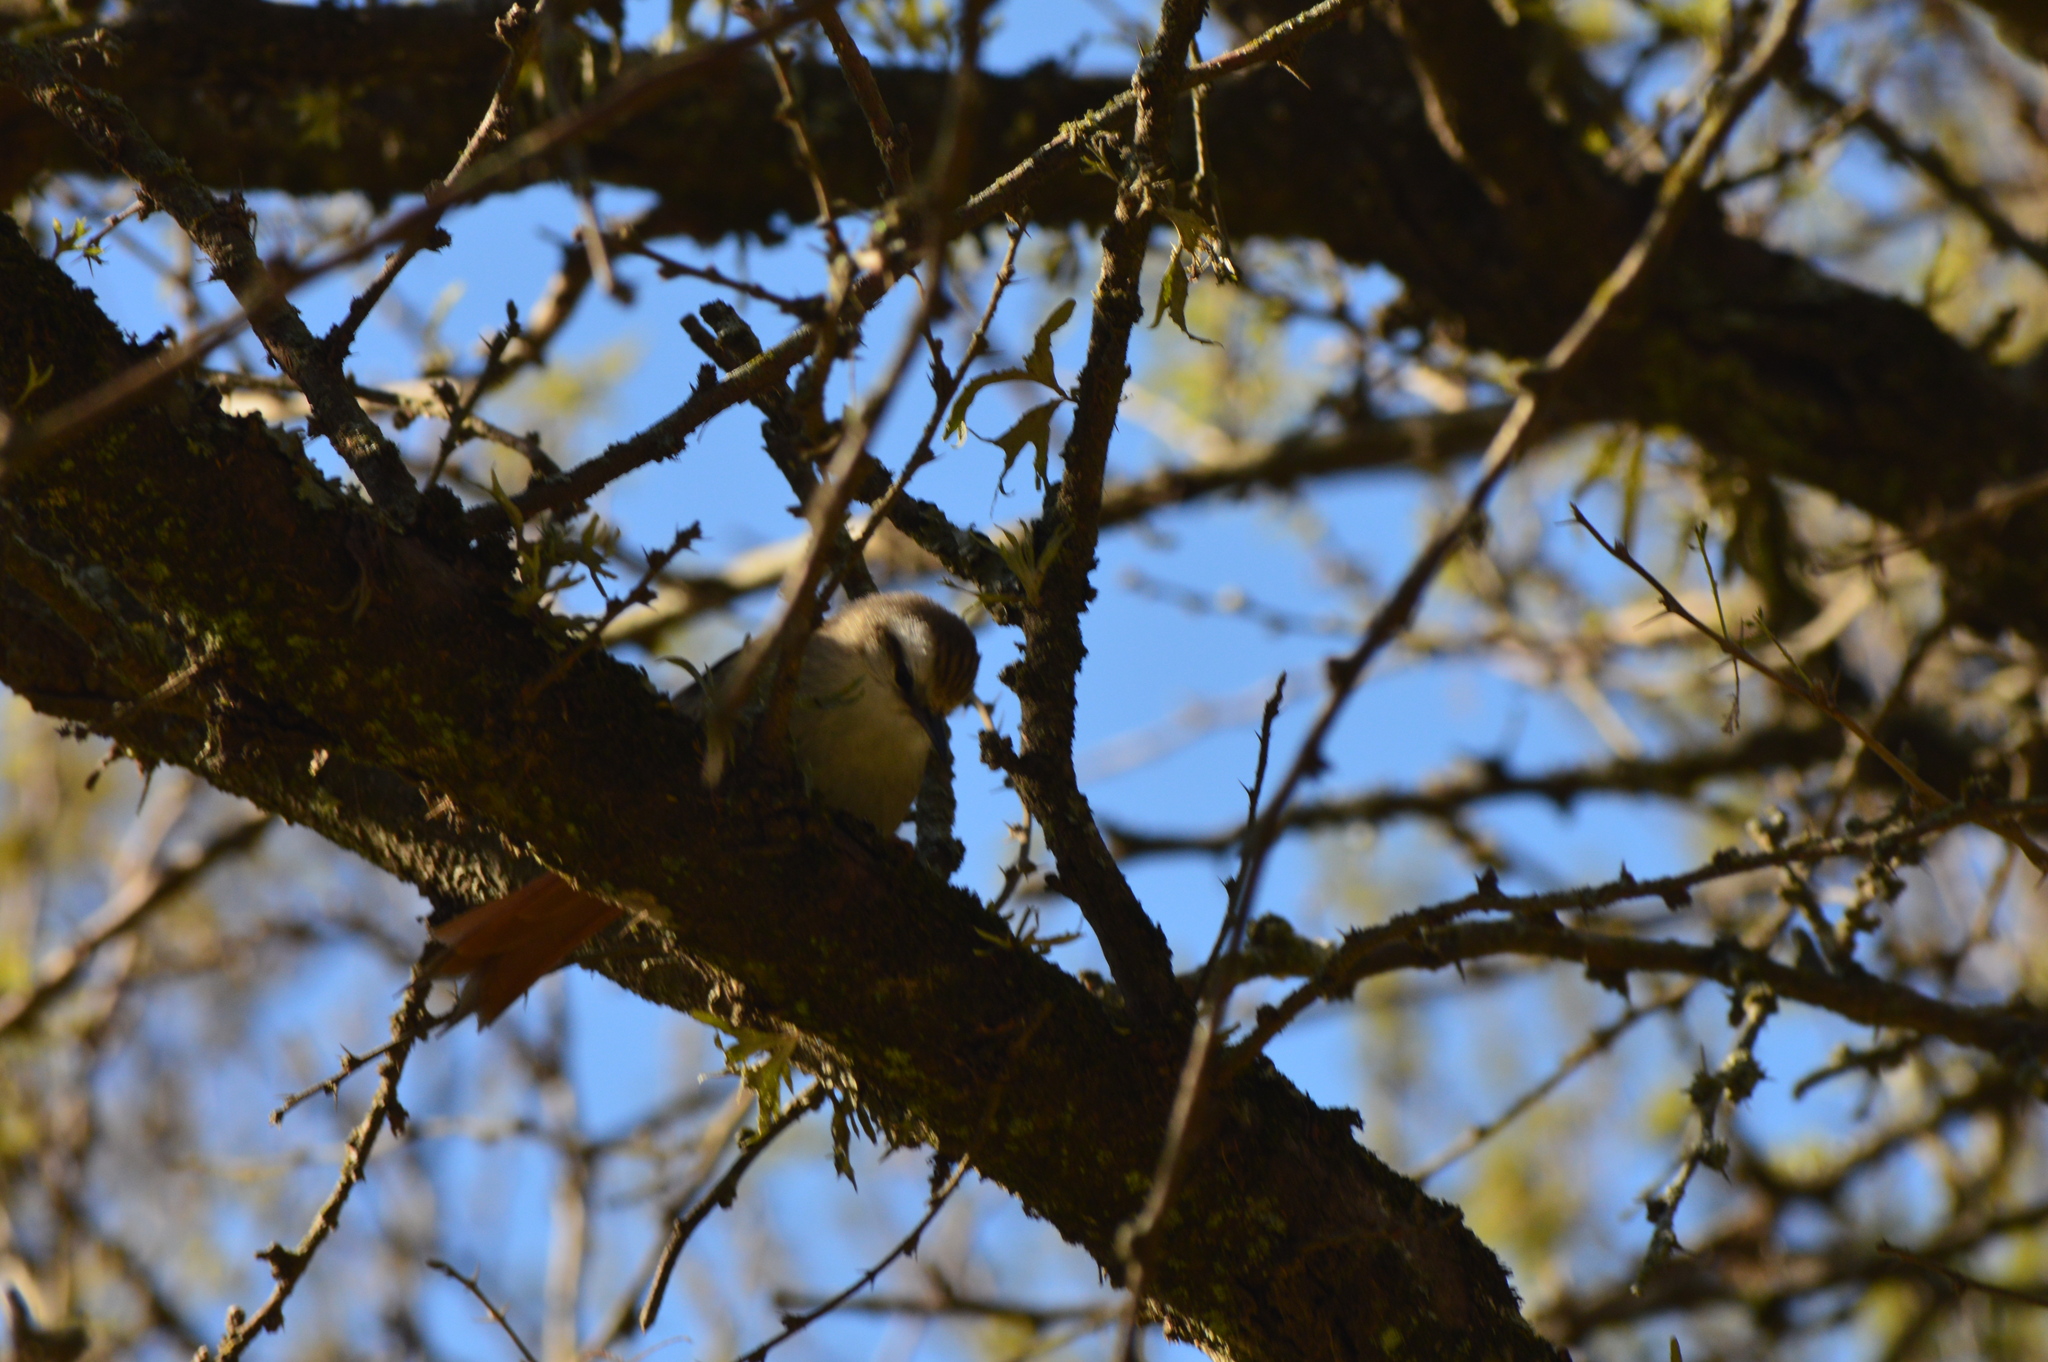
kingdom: Animalia
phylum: Chordata
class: Aves
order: Passeriformes
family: Furnariidae
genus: Cranioleuca
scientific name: Cranioleuca pyrrhophia
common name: Stripe-crowned spinetail
